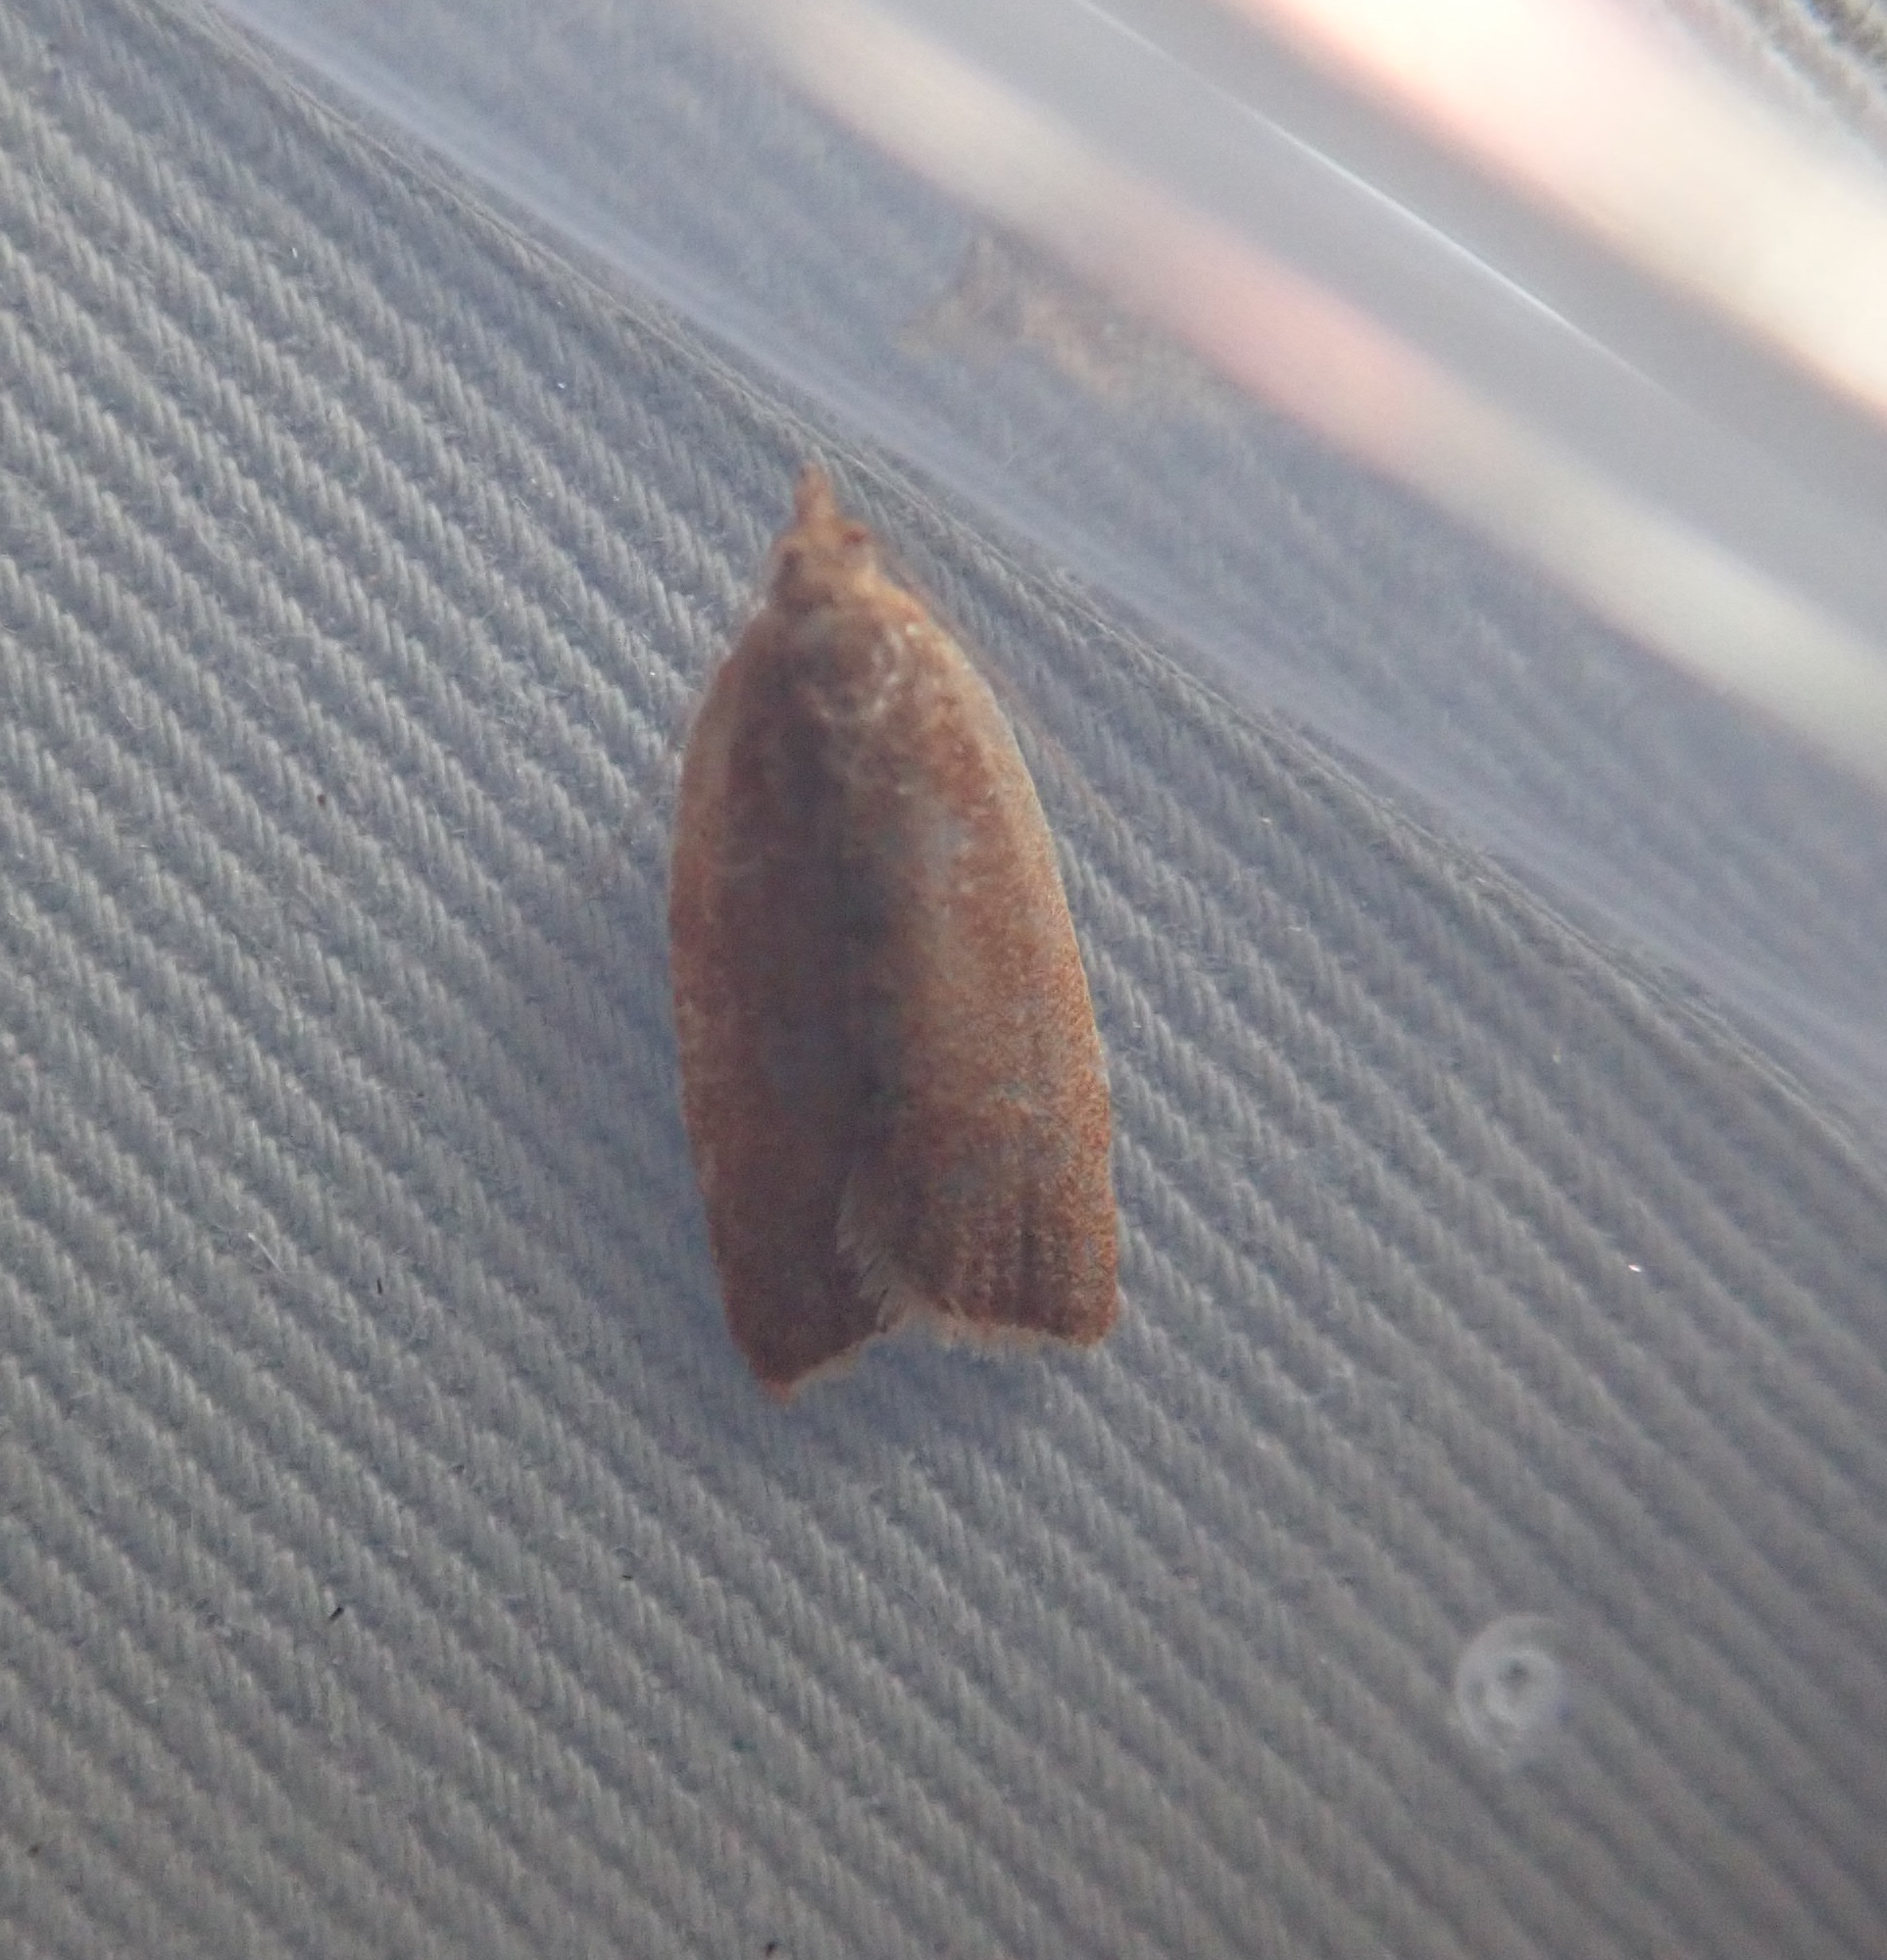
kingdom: Animalia
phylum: Arthropoda
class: Insecta
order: Lepidoptera
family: Tortricidae
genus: Clepsis
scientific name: Clepsis consimilana
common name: Privet tortrix
